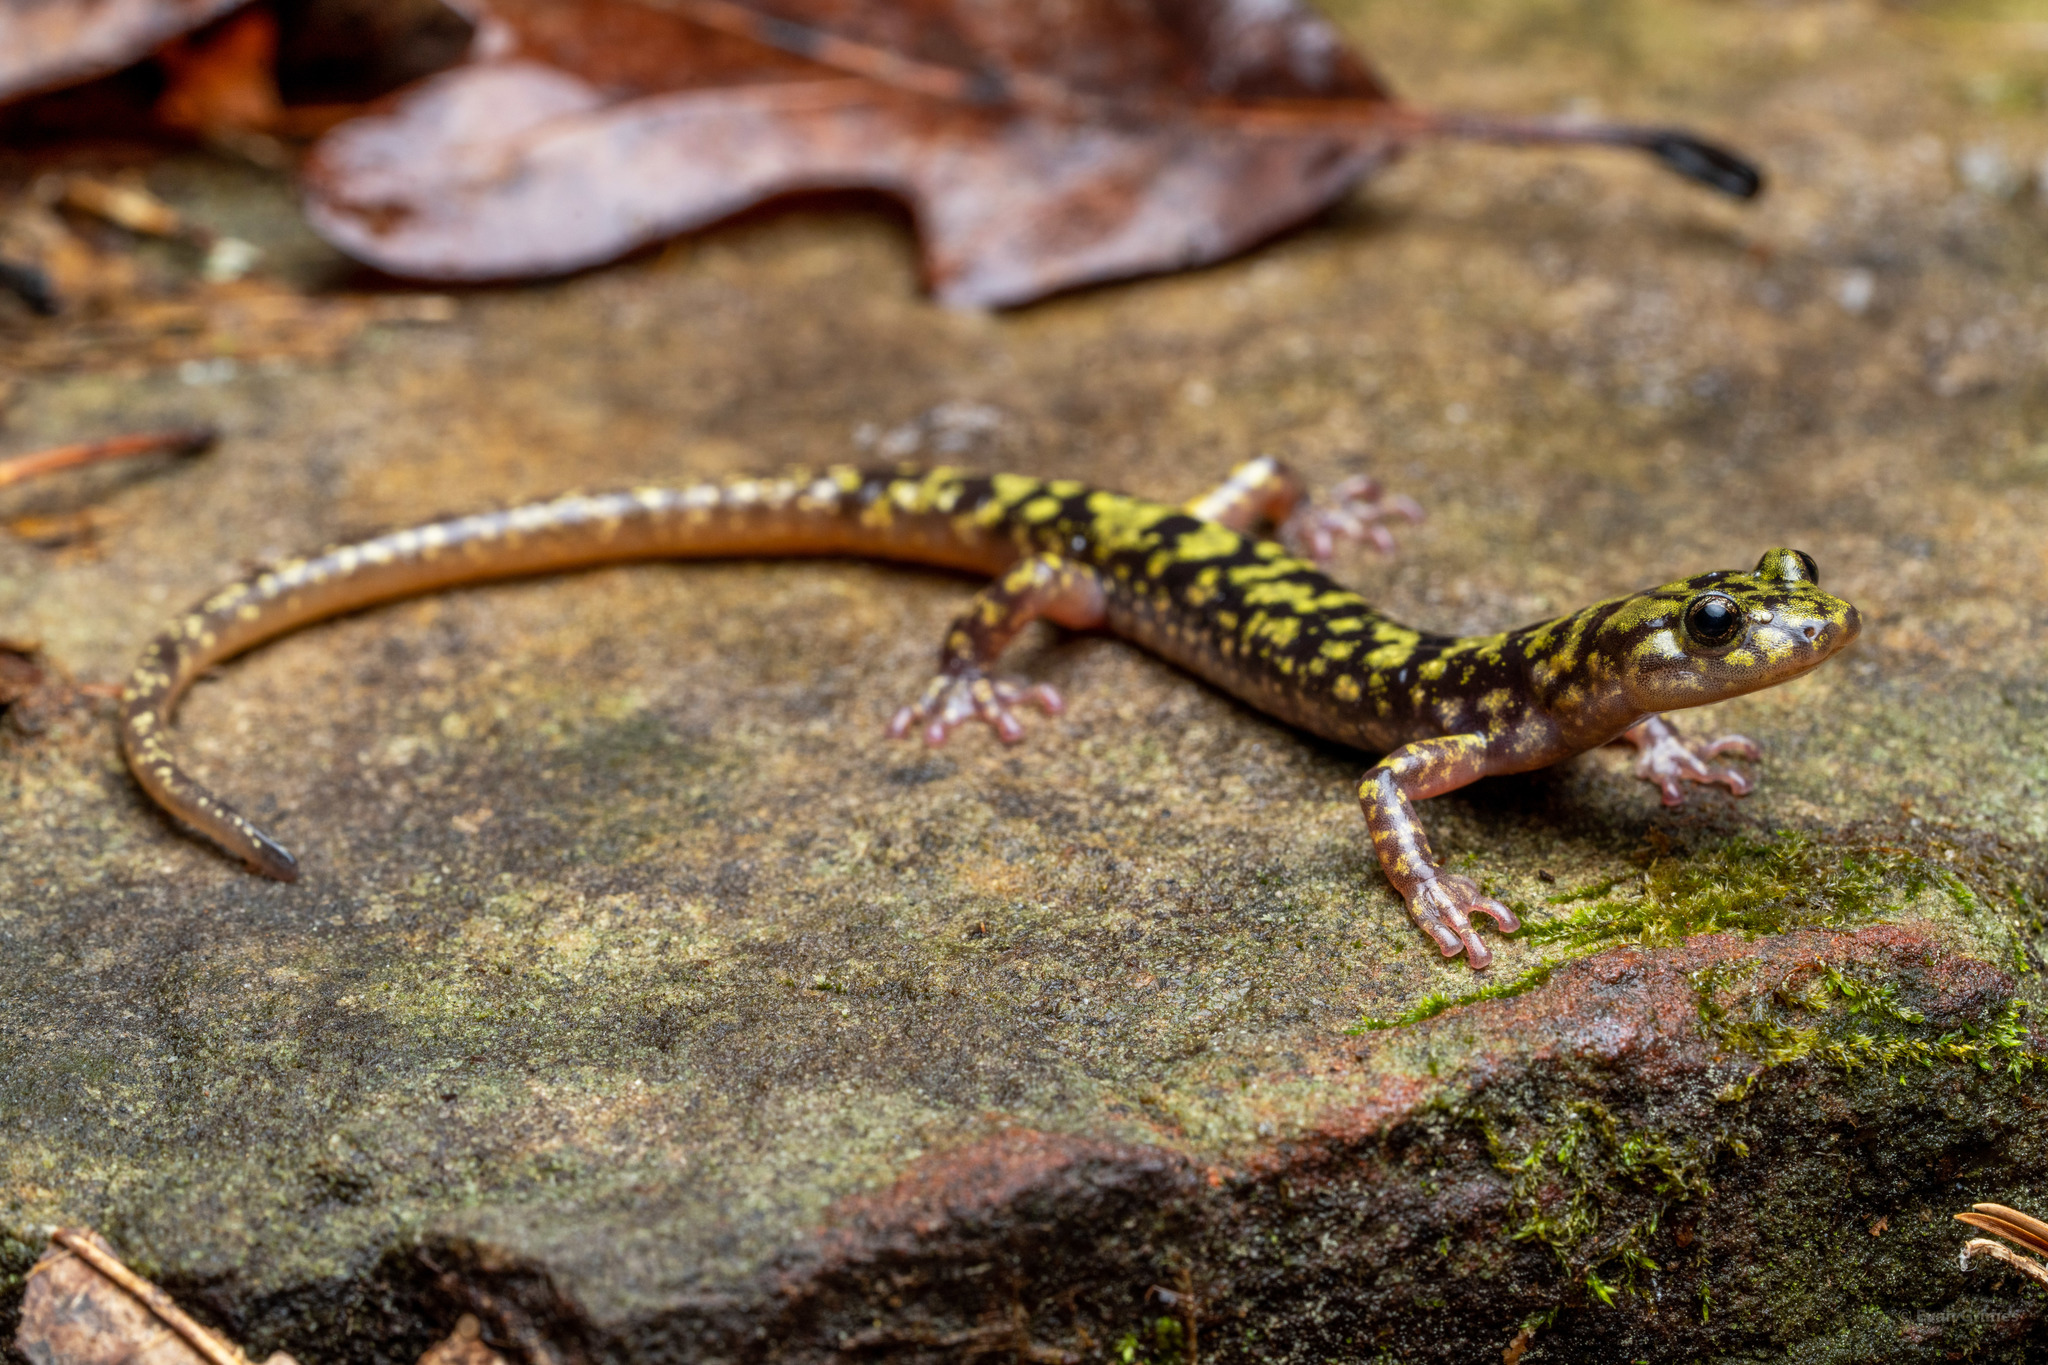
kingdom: Animalia
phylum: Chordata
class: Amphibia
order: Caudata
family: Plethodontidae
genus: Aneides
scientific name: Aneides aeneus
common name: Green salamander
